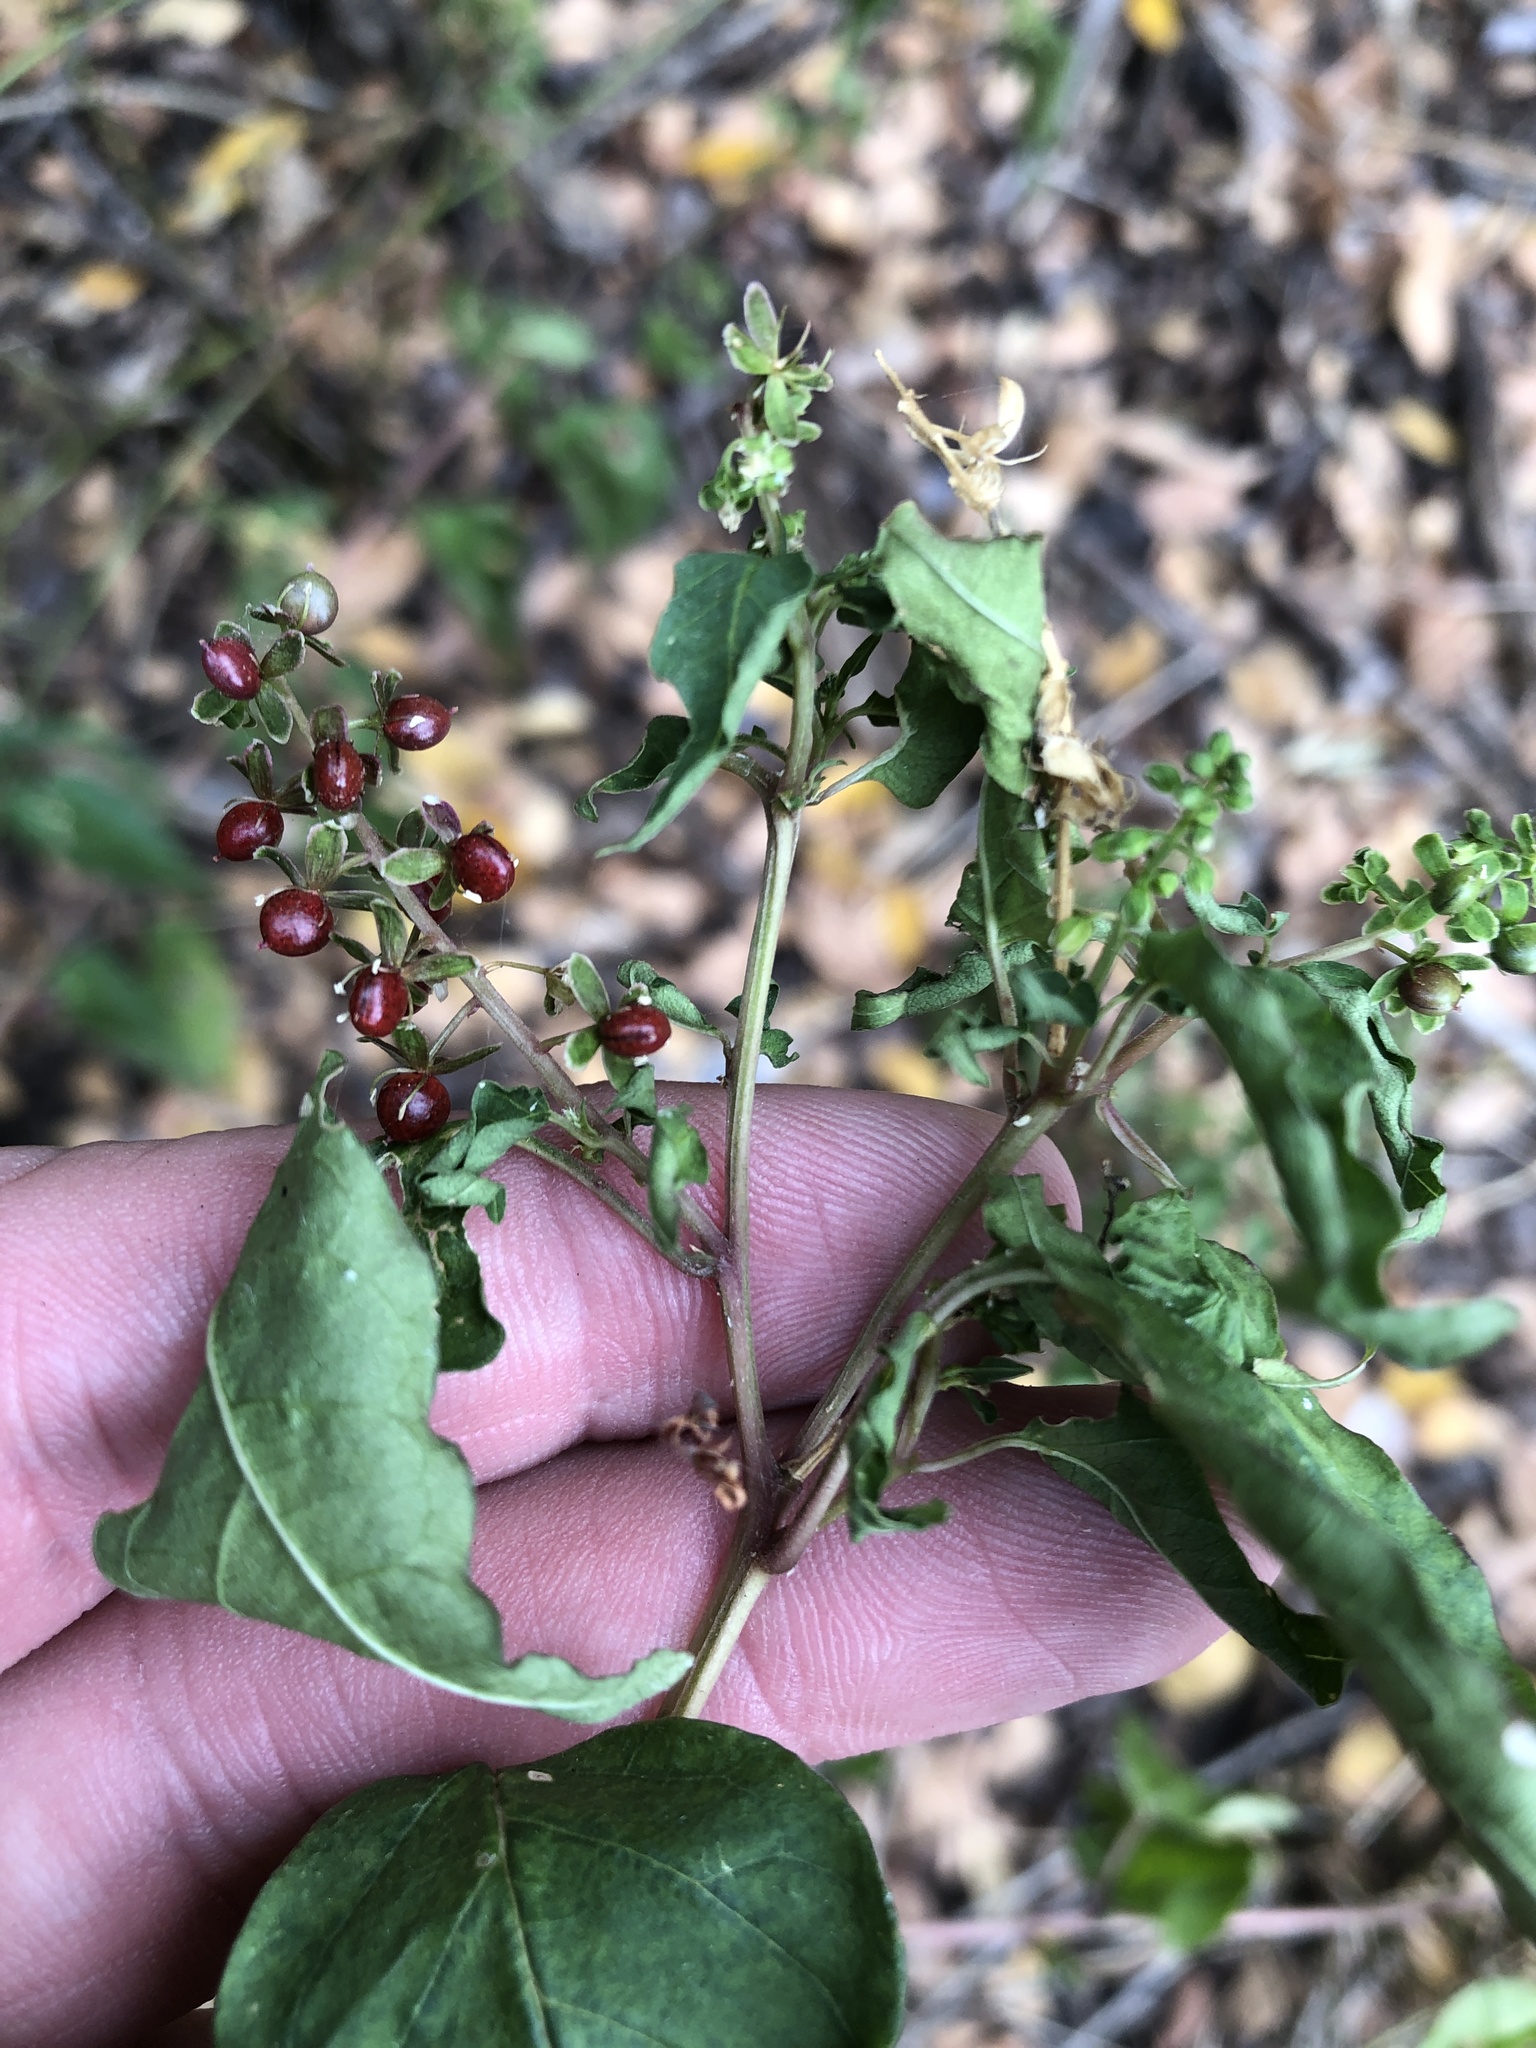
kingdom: Plantae
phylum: Tracheophyta
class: Magnoliopsida
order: Caryophyllales
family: Phytolaccaceae
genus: Rivina
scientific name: Rivina humilis
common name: Rougeplant
